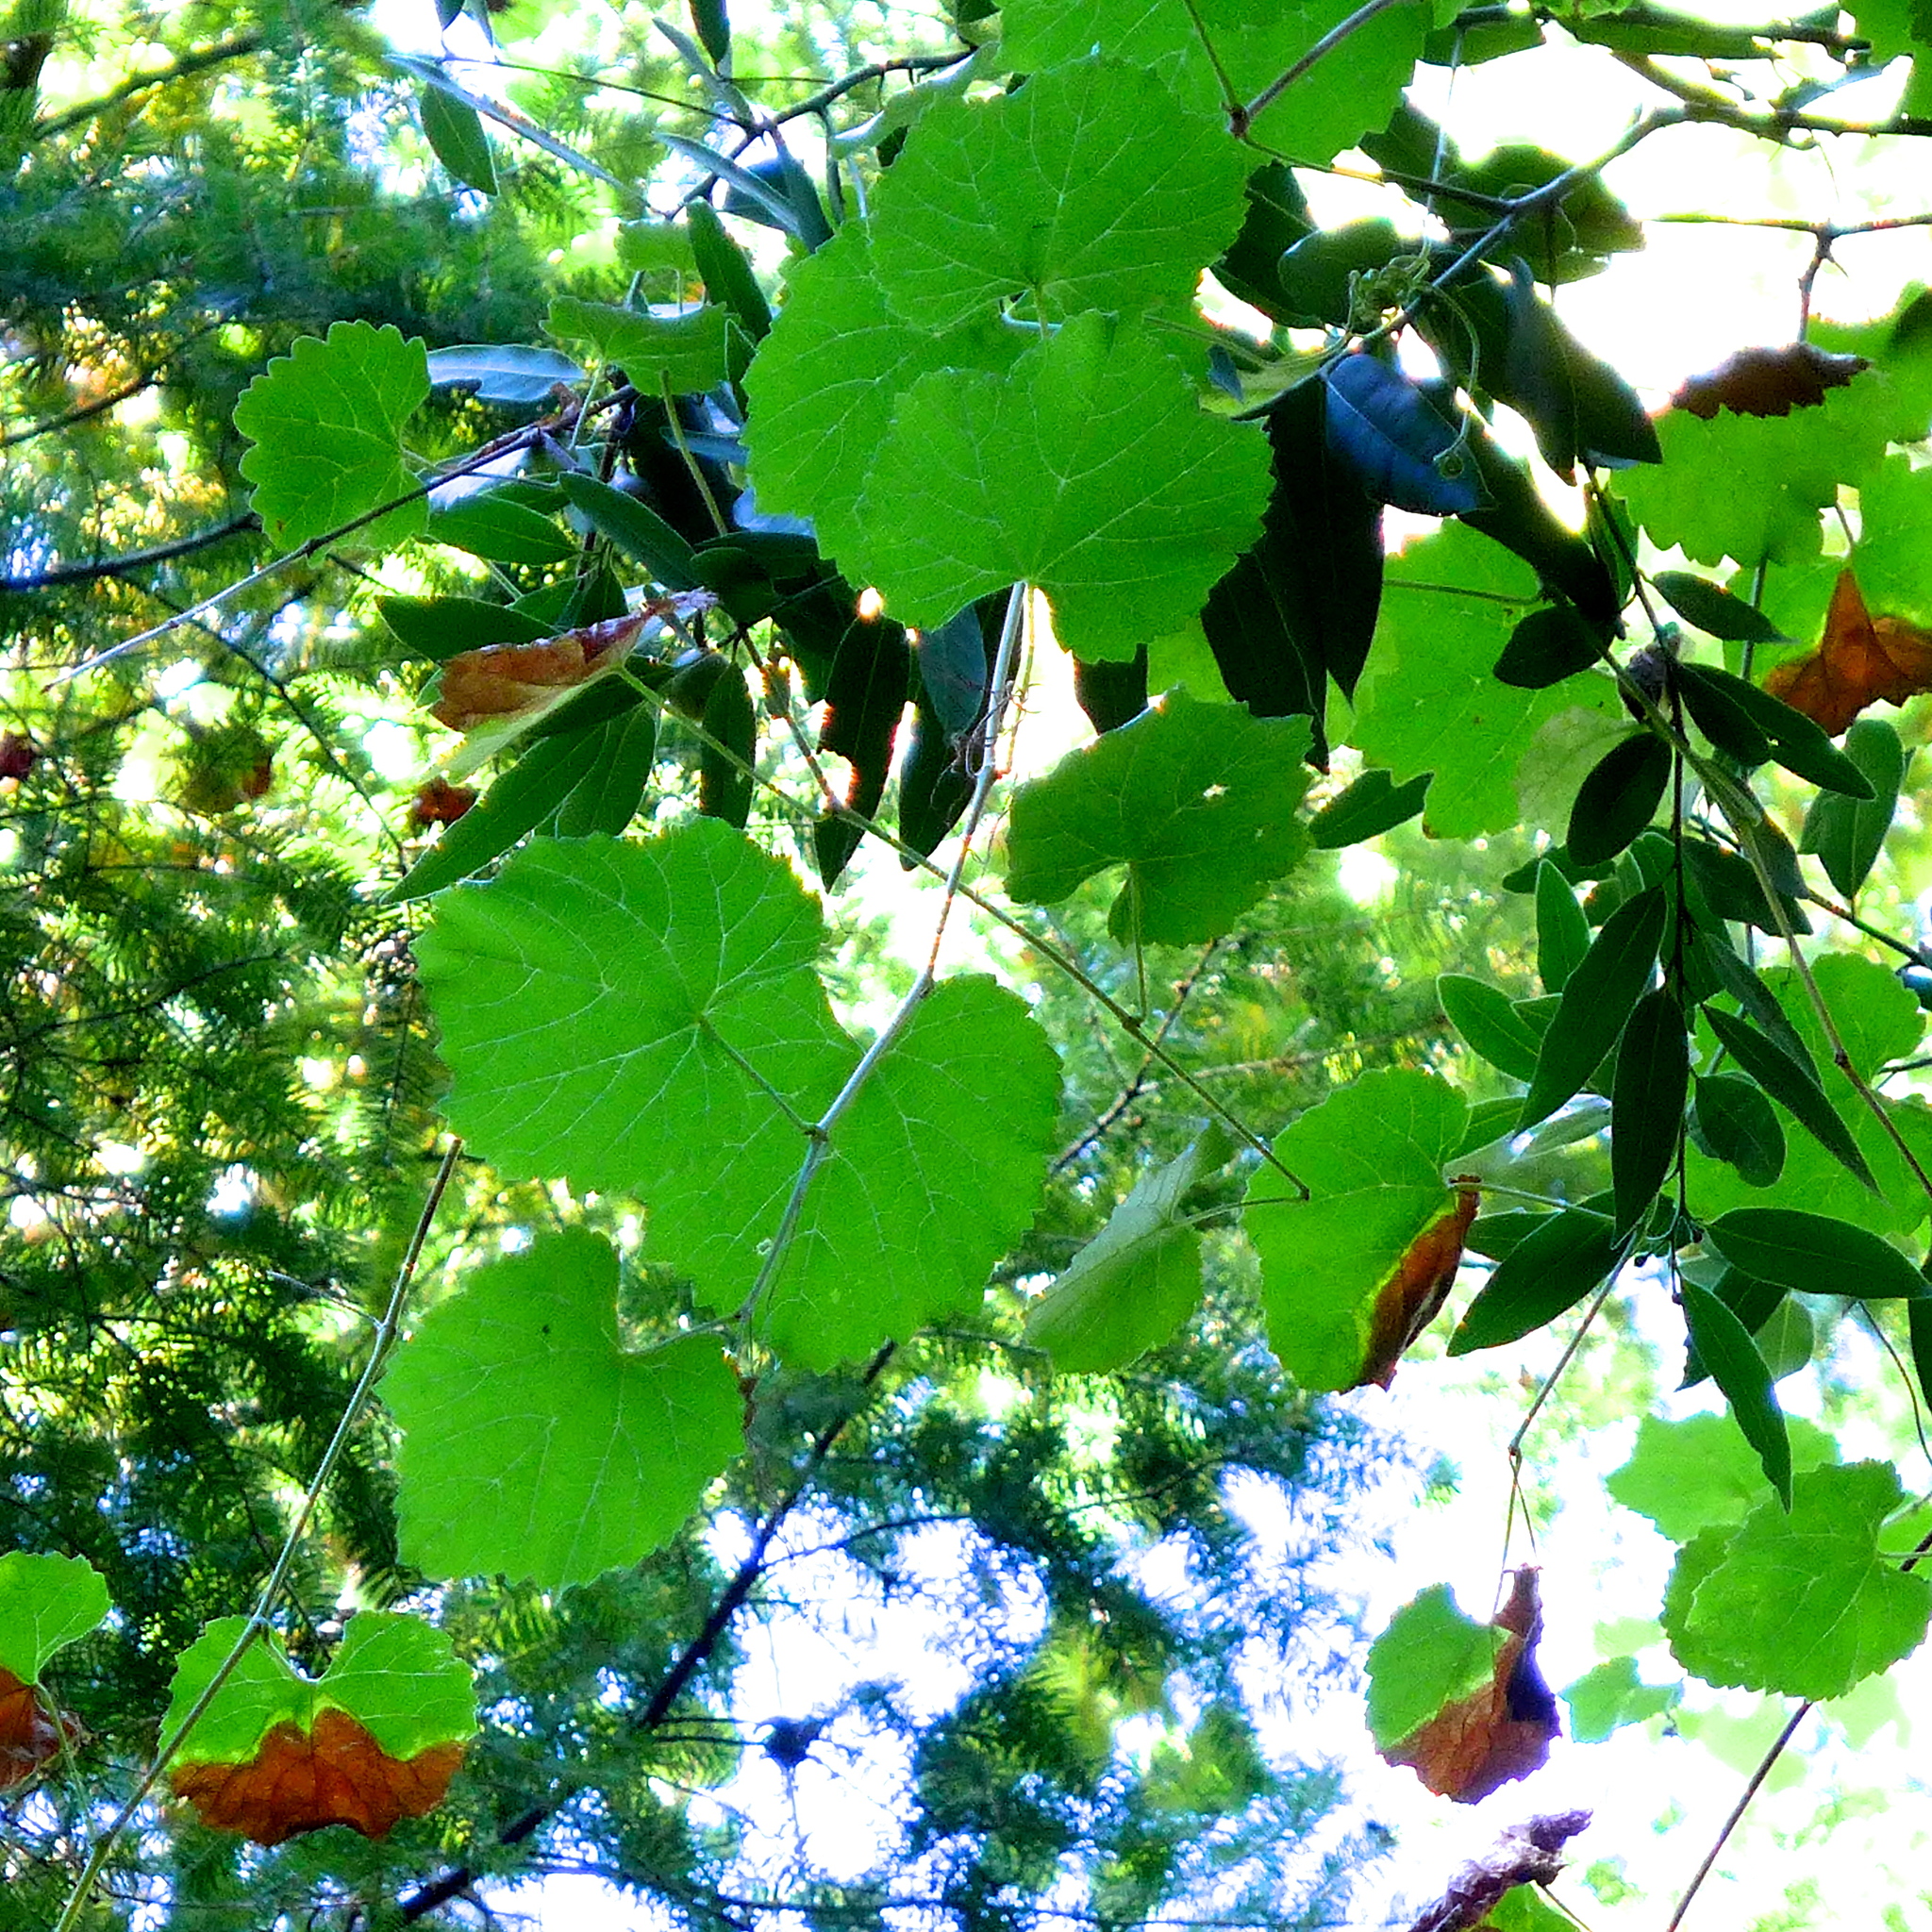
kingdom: Plantae
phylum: Tracheophyta
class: Magnoliopsida
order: Vitales
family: Vitaceae
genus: Vitis
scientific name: Vitis californica
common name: California wild grape
